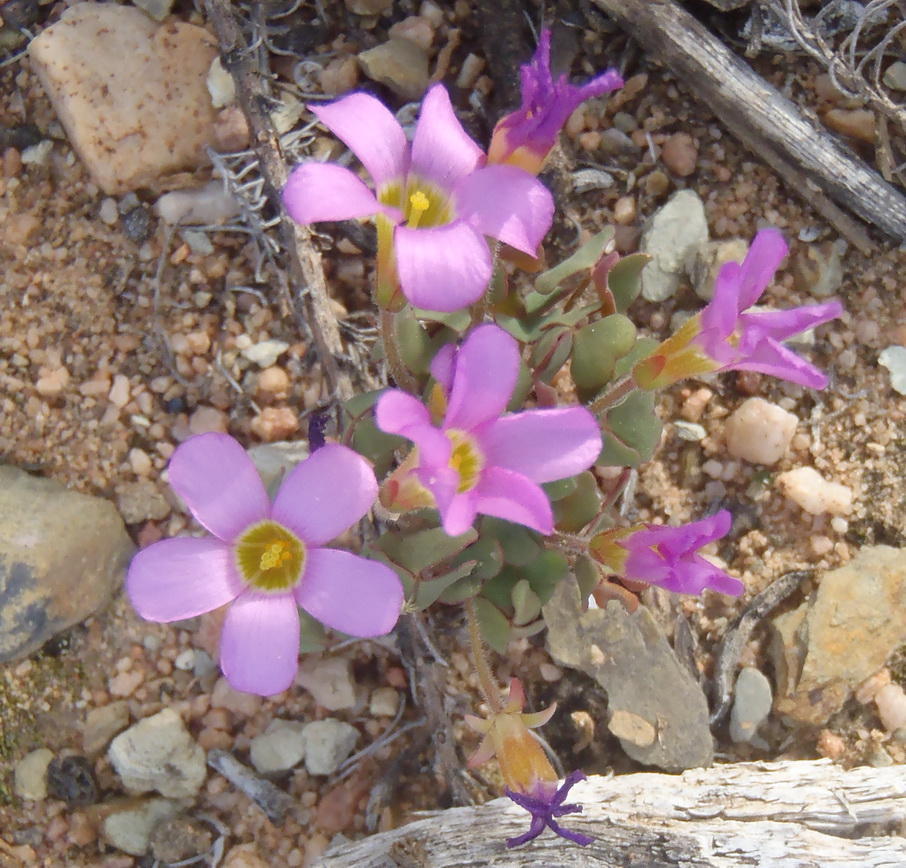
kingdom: Plantae
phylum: Tracheophyta
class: Magnoliopsida
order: Oxalidales
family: Oxalidaceae
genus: Oxalis
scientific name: Oxalis punctata
